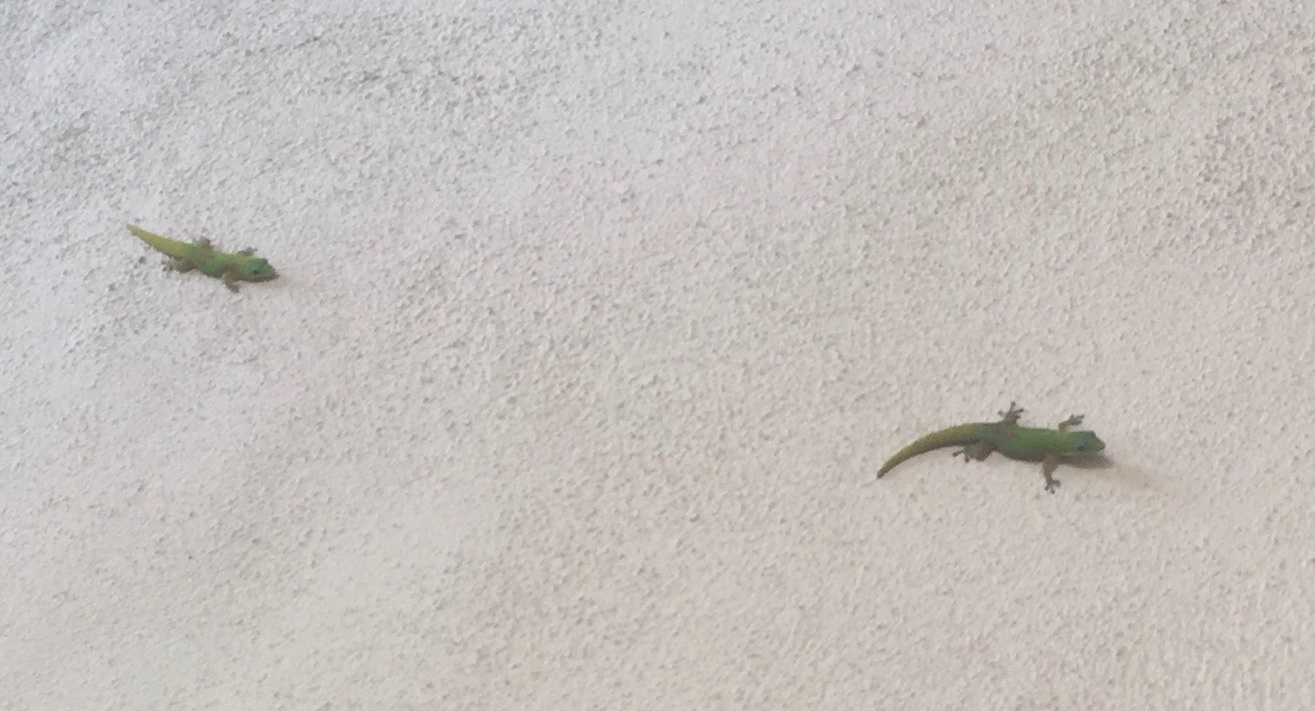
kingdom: Animalia
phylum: Chordata
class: Squamata
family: Gekkonidae
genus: Phelsuma
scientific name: Phelsuma laticauda
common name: Gold dust day gecko
